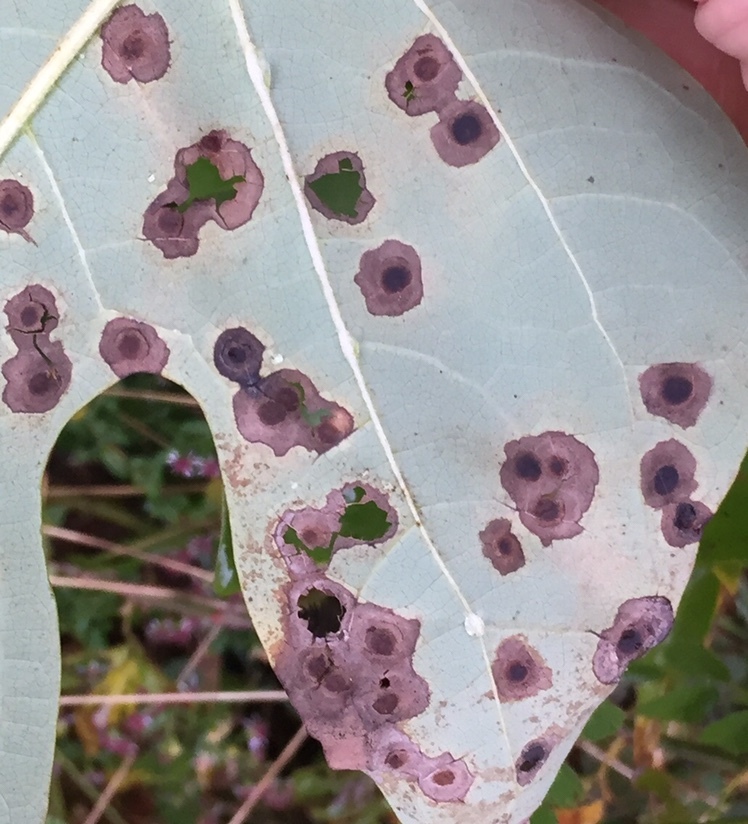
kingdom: Animalia
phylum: Arthropoda
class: Insecta
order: Diptera
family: Cecidomyiidae
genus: Resseliella
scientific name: Resseliella liriodendri
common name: Tulip tree leaf spot gall midge
